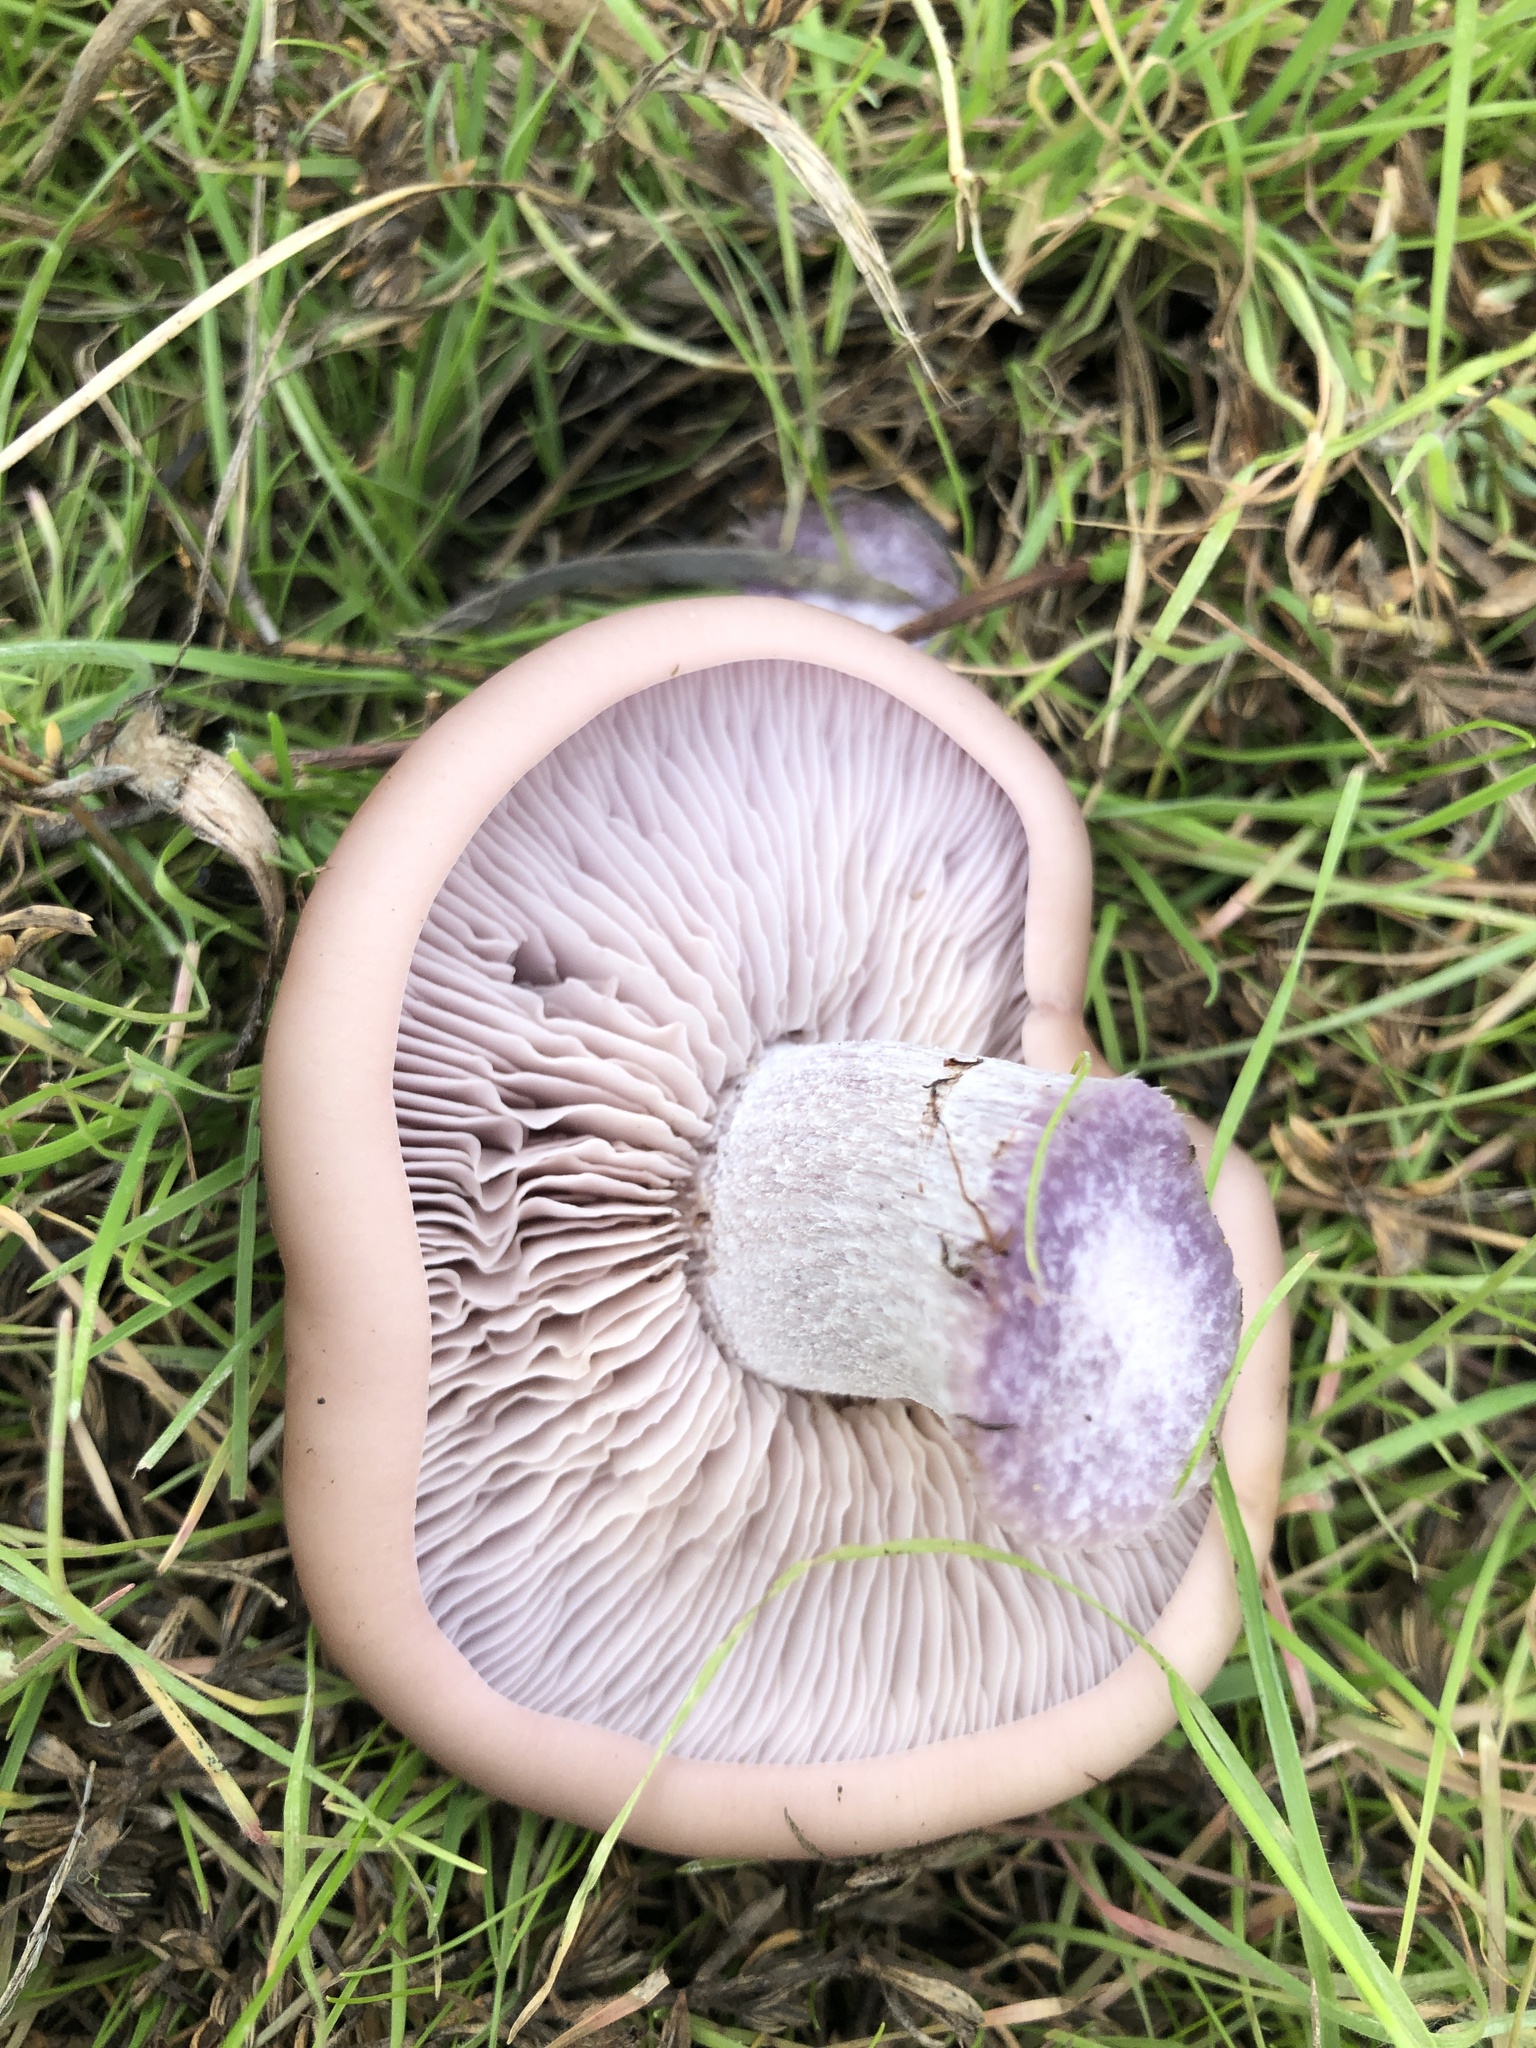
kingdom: Fungi
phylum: Basidiomycota
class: Agaricomycetes
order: Agaricales
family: Tricholomataceae
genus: Collybia
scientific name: Collybia
